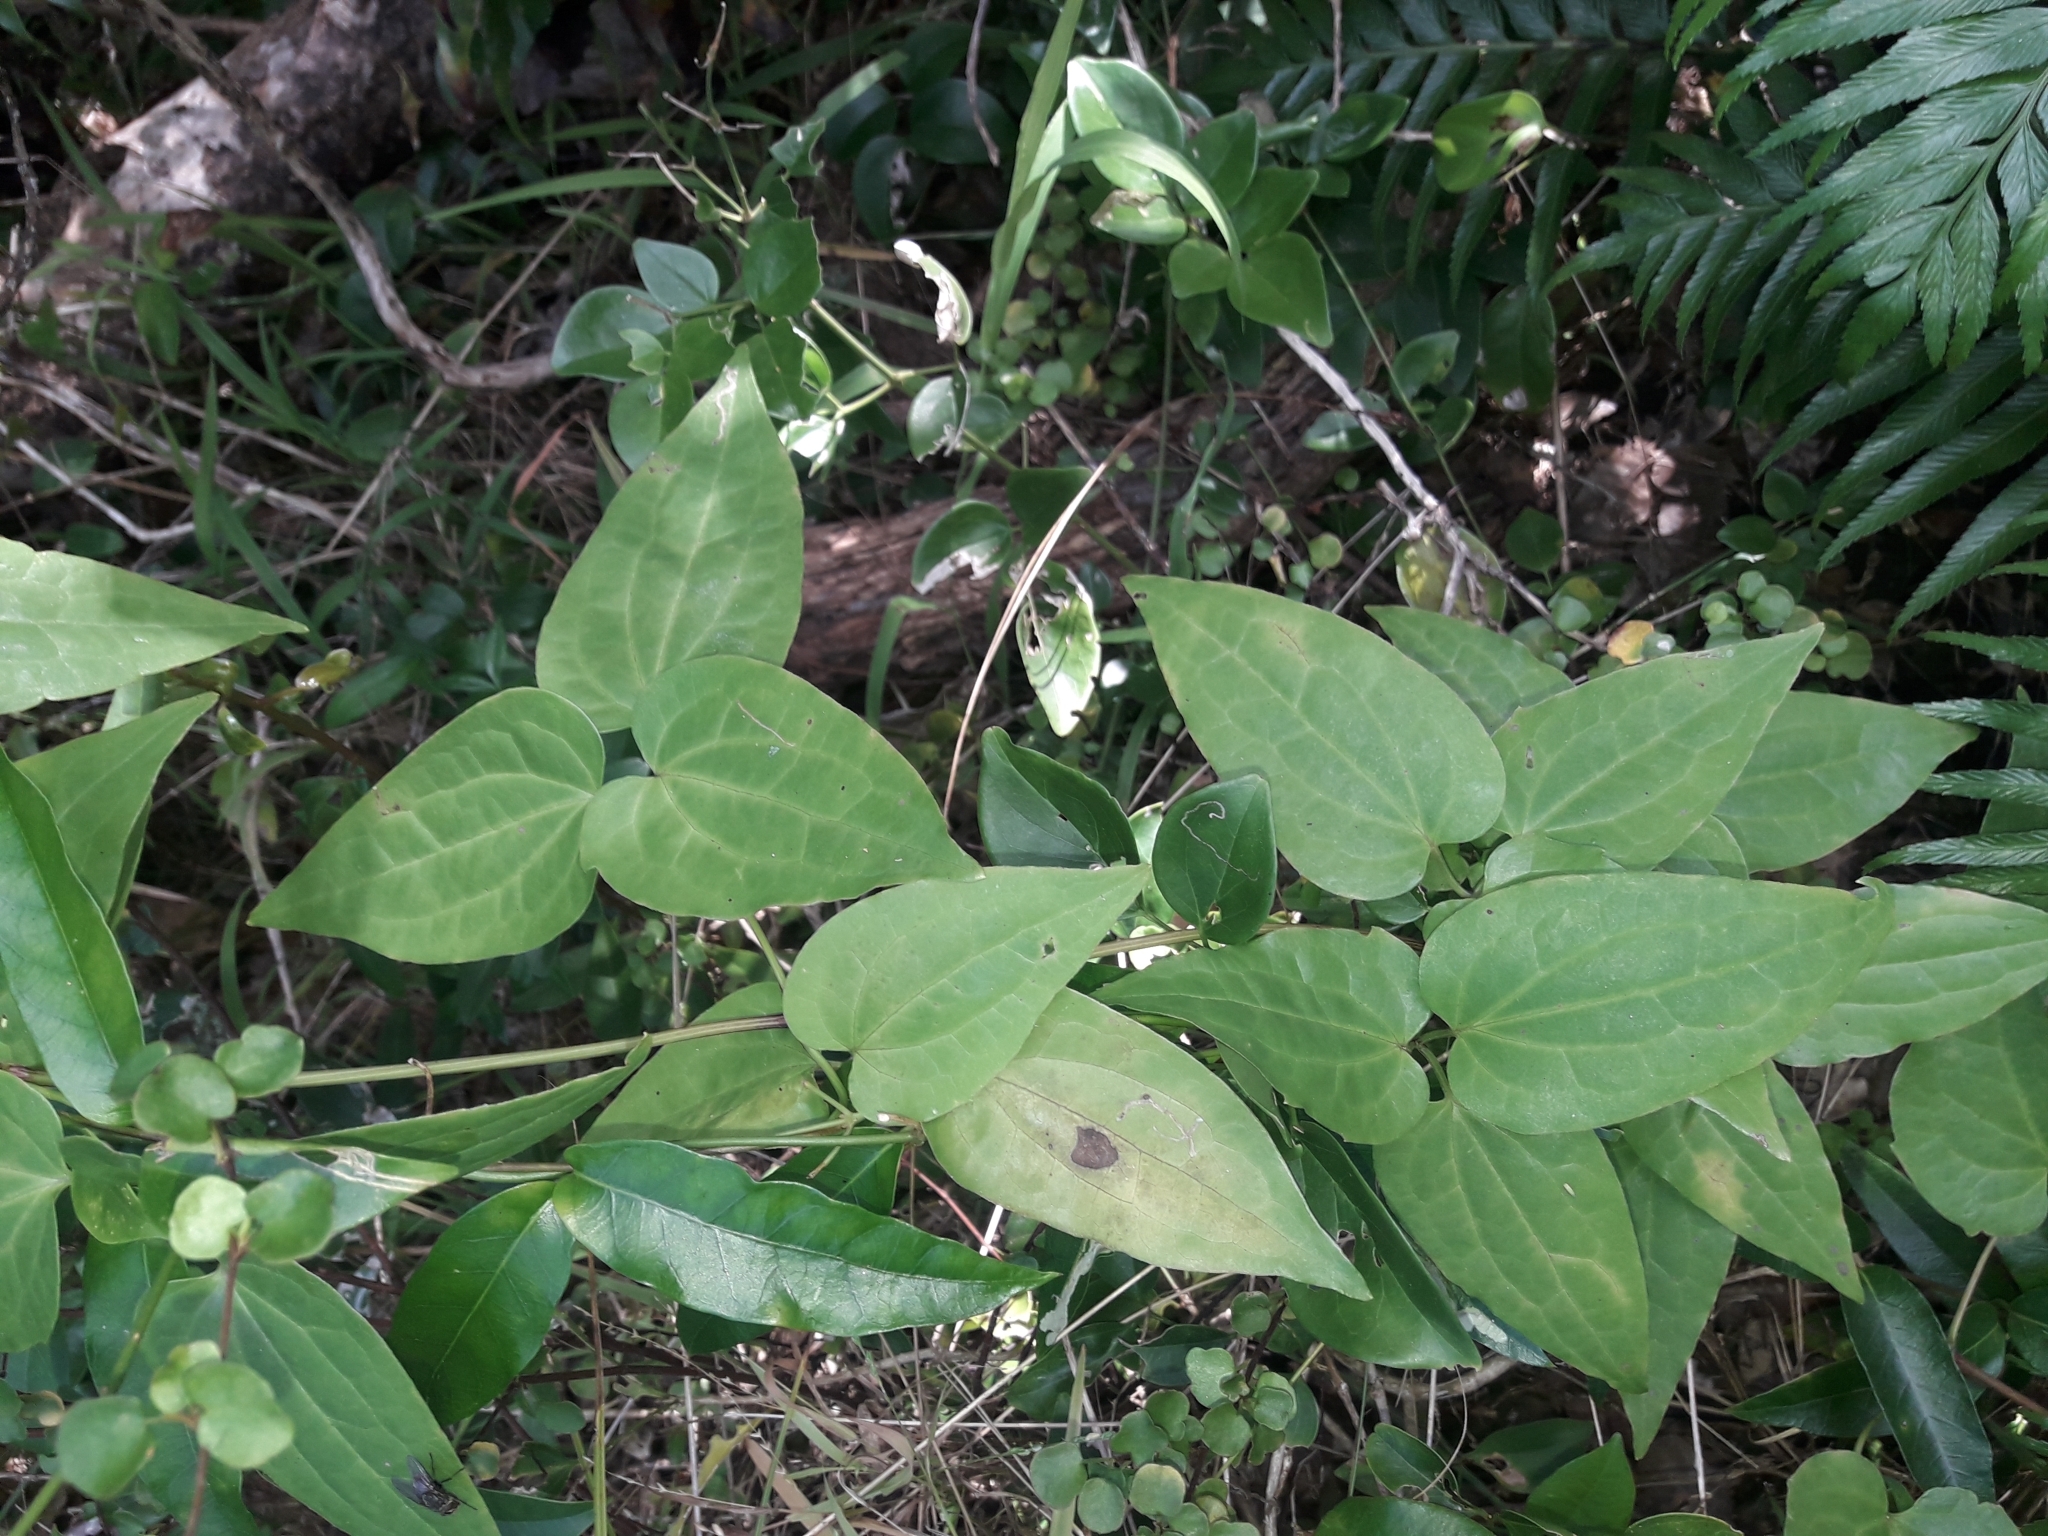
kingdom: Plantae
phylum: Tracheophyta
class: Magnoliopsida
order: Ranunculales
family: Ranunculaceae
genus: Clematis
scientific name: Clematis glycinoides
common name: Forest clematis
